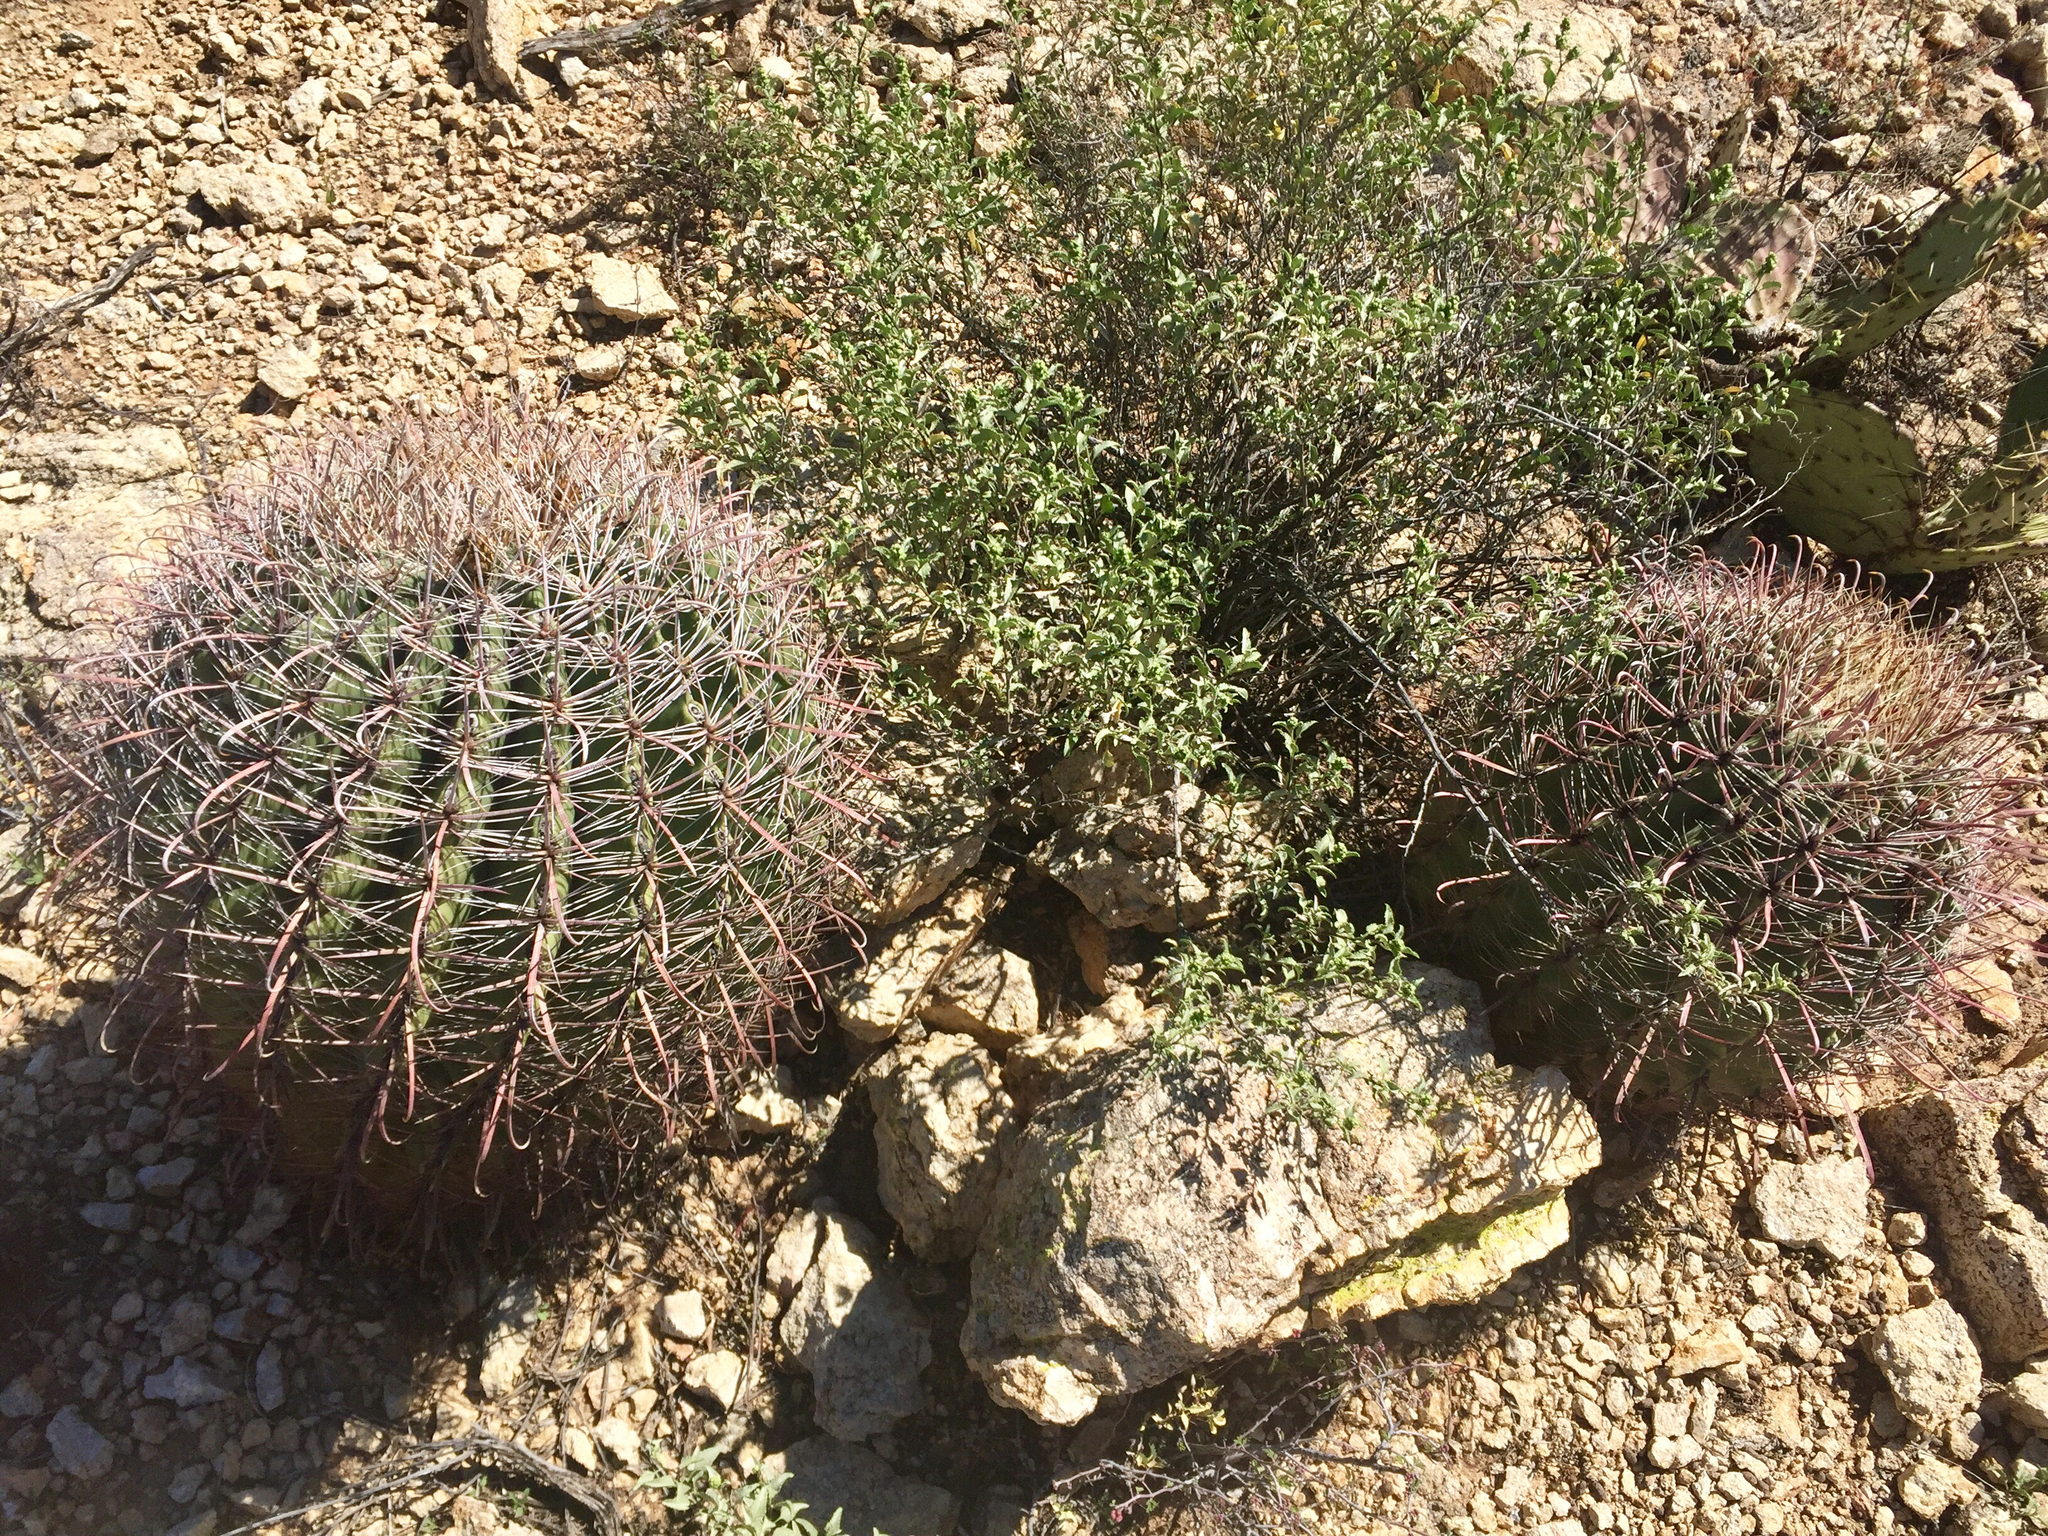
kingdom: Plantae
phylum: Tracheophyta
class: Magnoliopsida
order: Caryophyllales
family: Cactaceae
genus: Ferocactus
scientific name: Ferocactus wislizeni
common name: Candy barrel cactus
